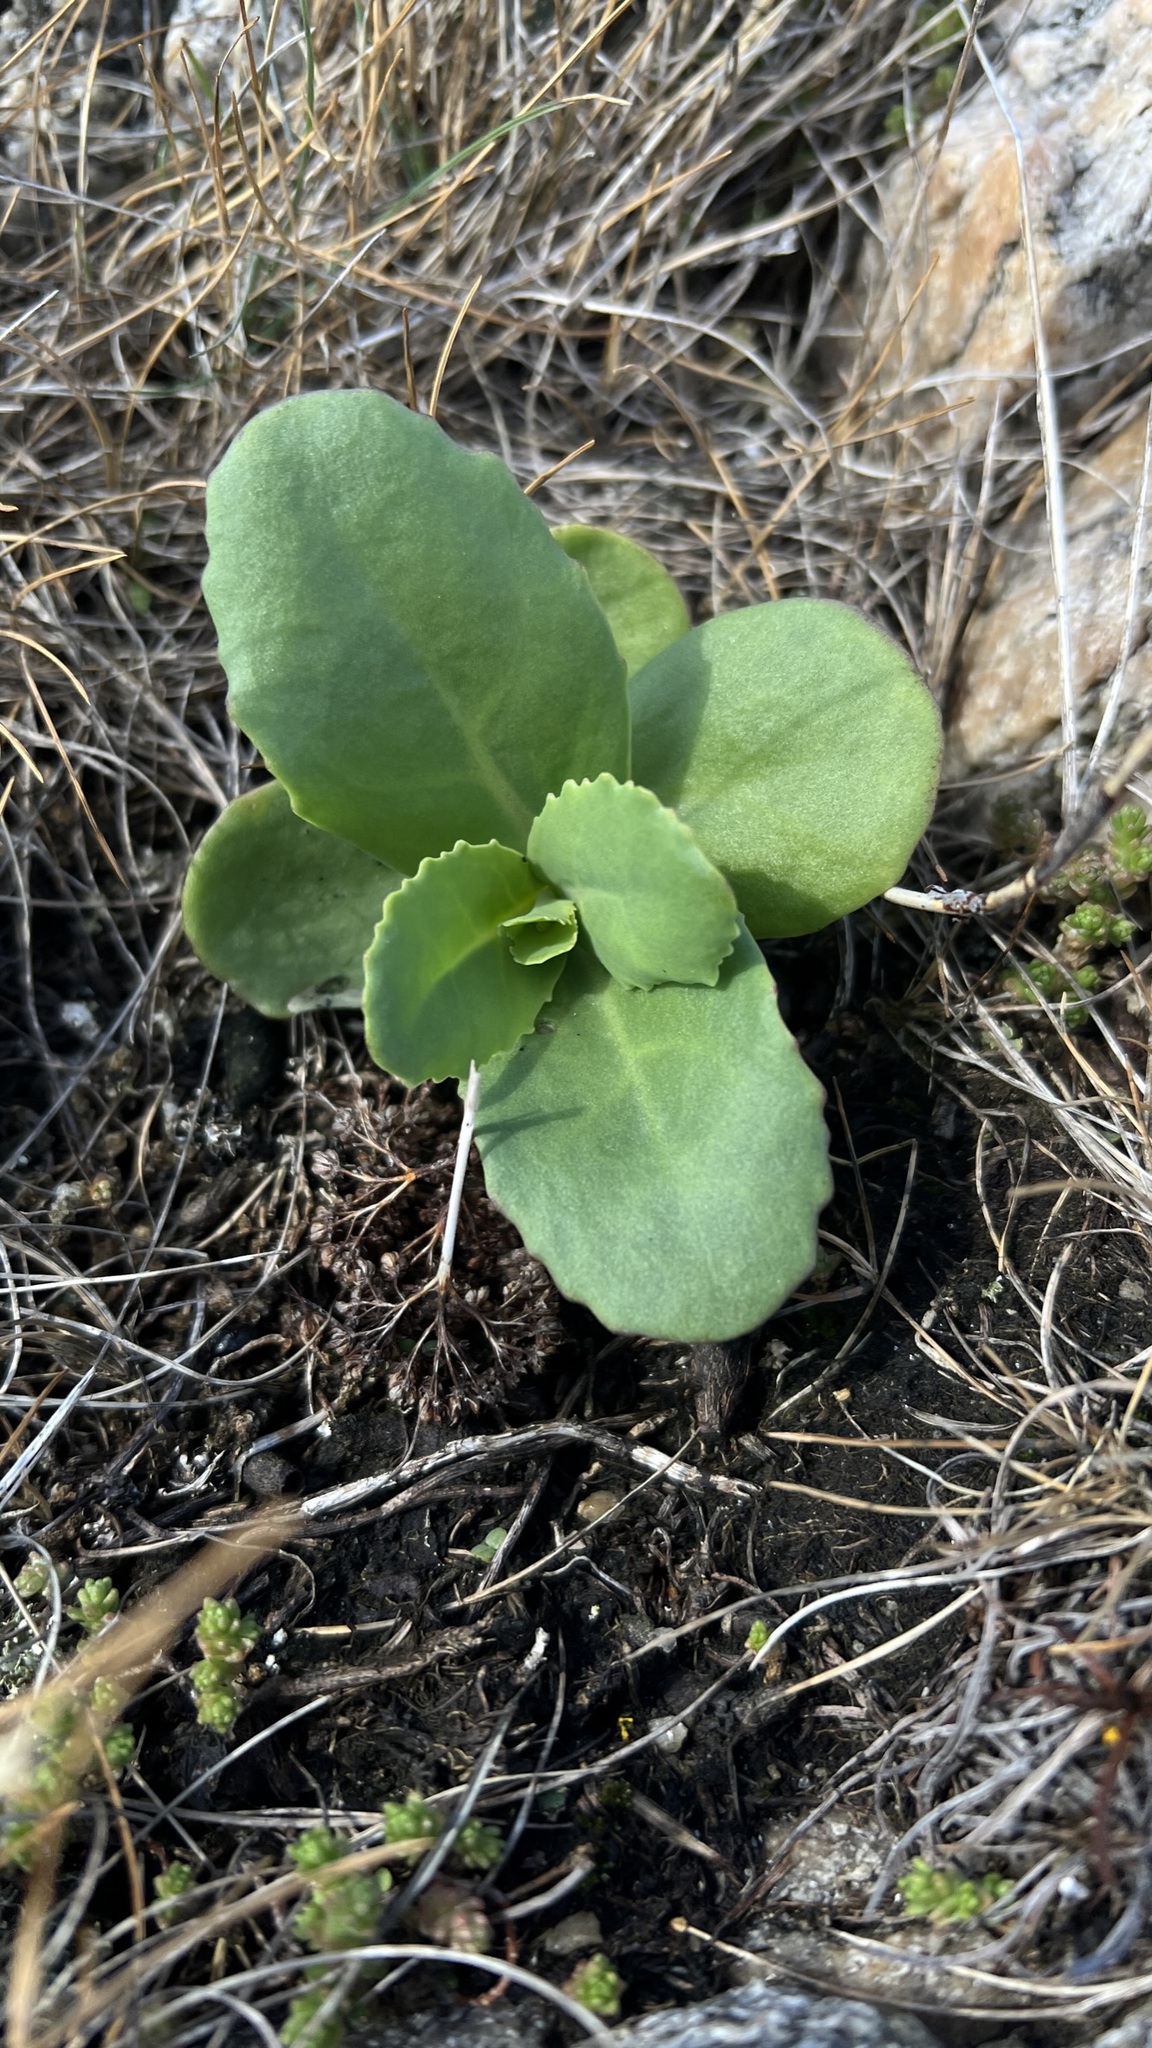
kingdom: Plantae
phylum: Tracheophyta
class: Magnoliopsida
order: Saxifragales
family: Crassulaceae
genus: Hylotelephium
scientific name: Hylotelephium maximum
